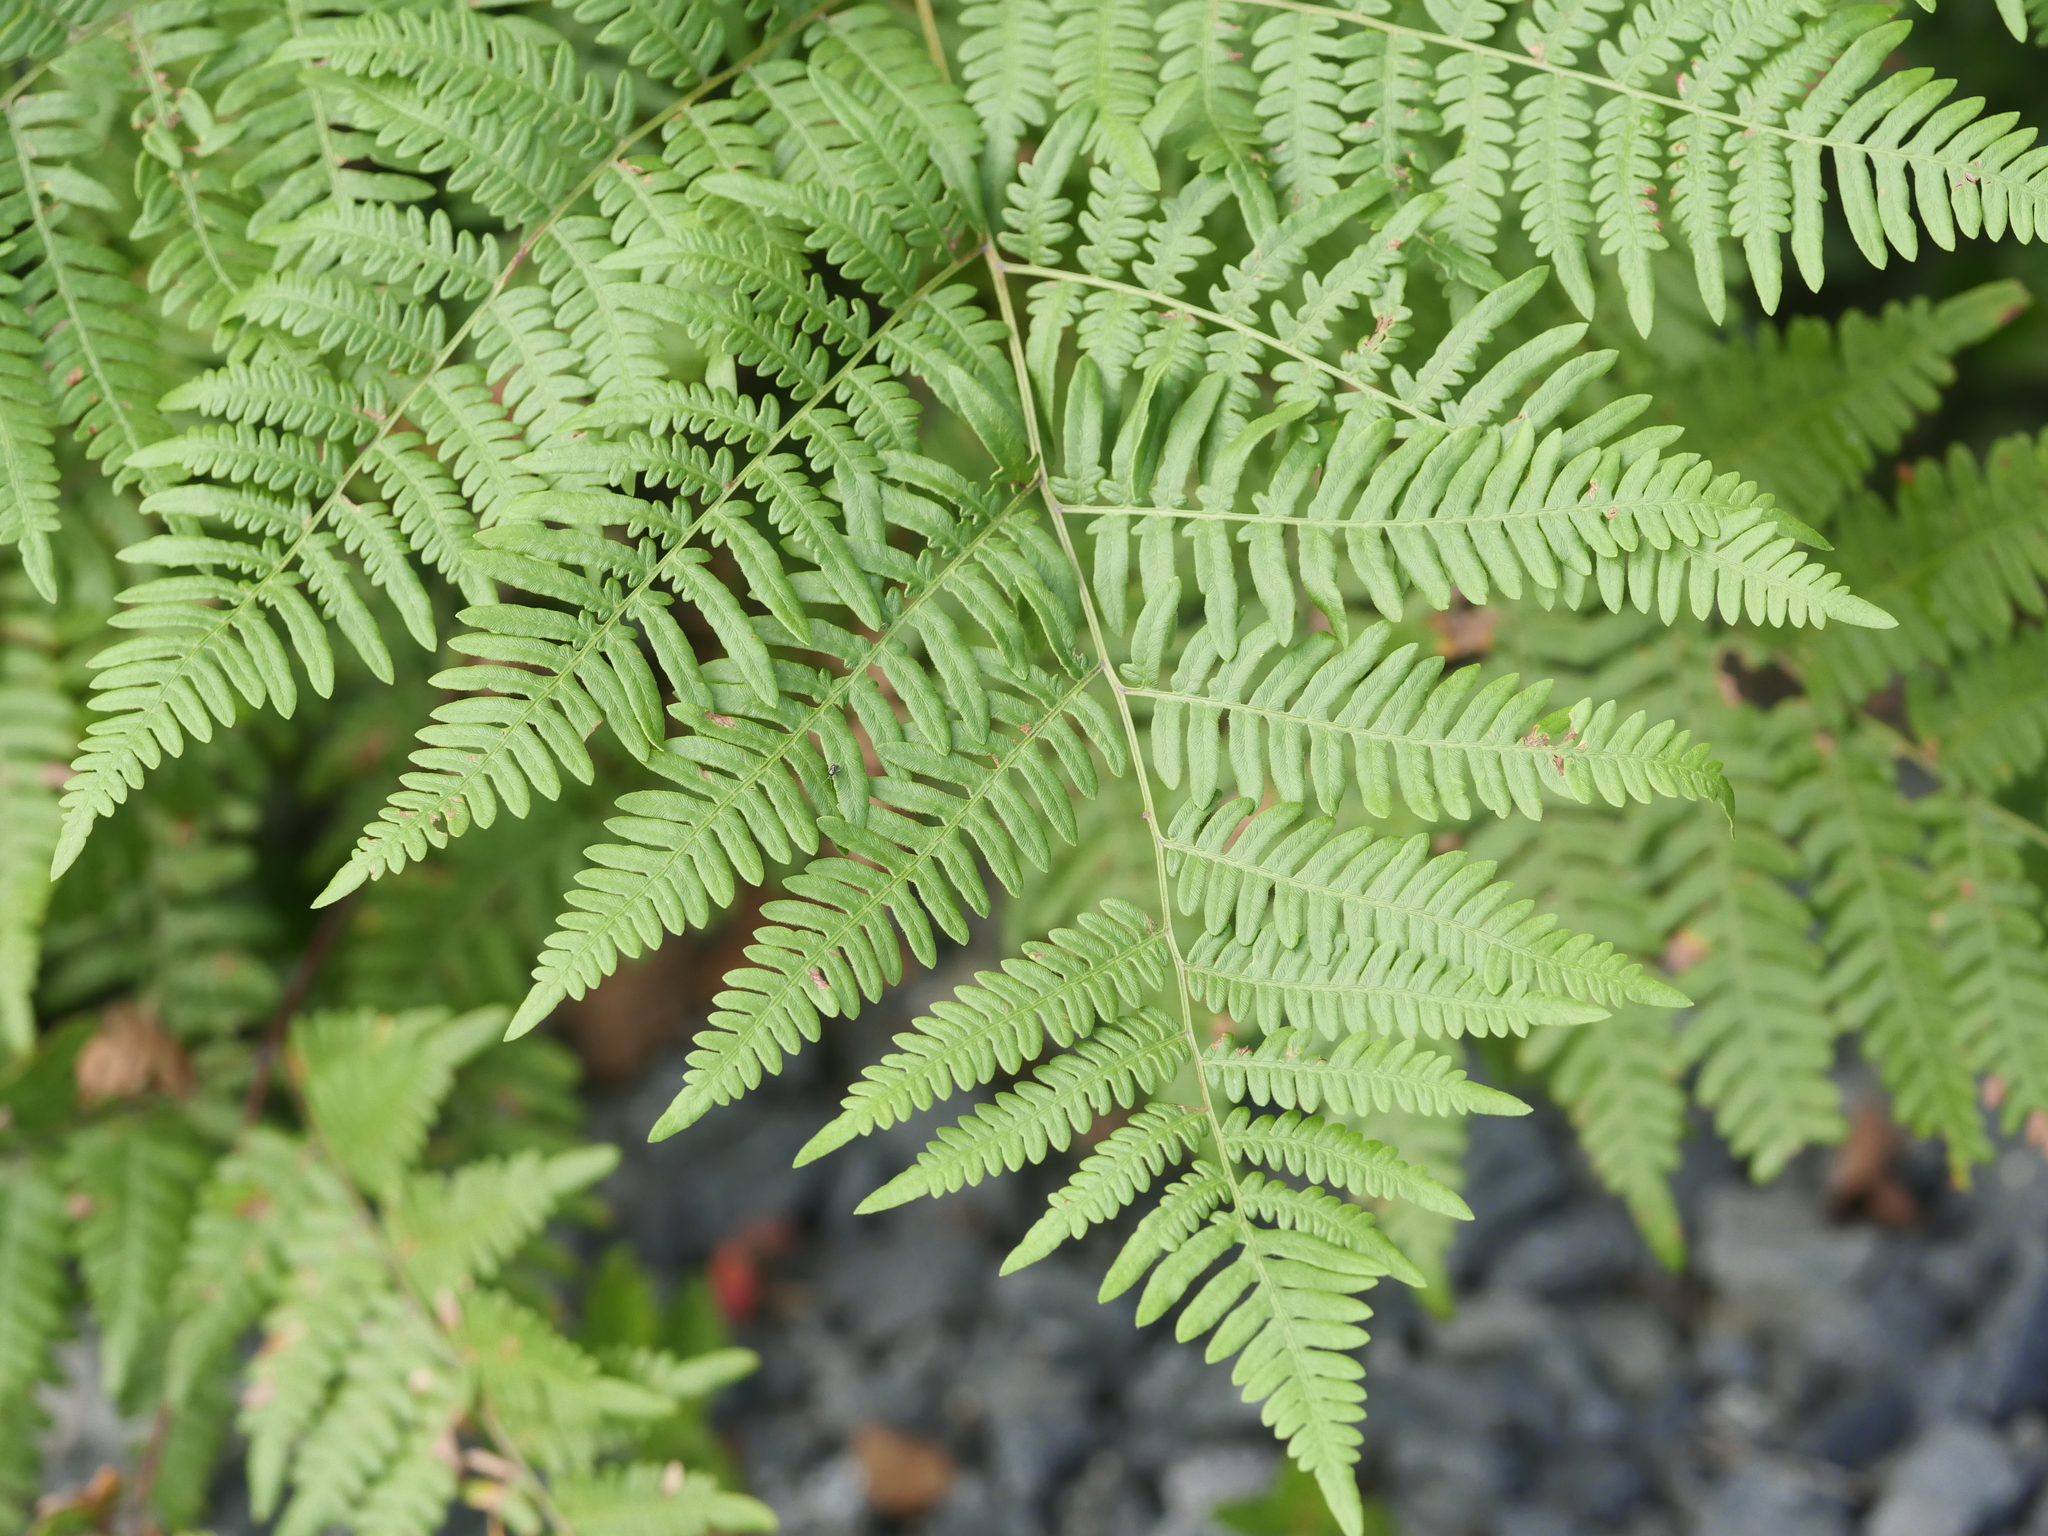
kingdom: Plantae
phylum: Tracheophyta
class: Polypodiopsida
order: Polypodiales
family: Dennstaedtiaceae
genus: Pteridium
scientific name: Pteridium aquilinum
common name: Bracken
